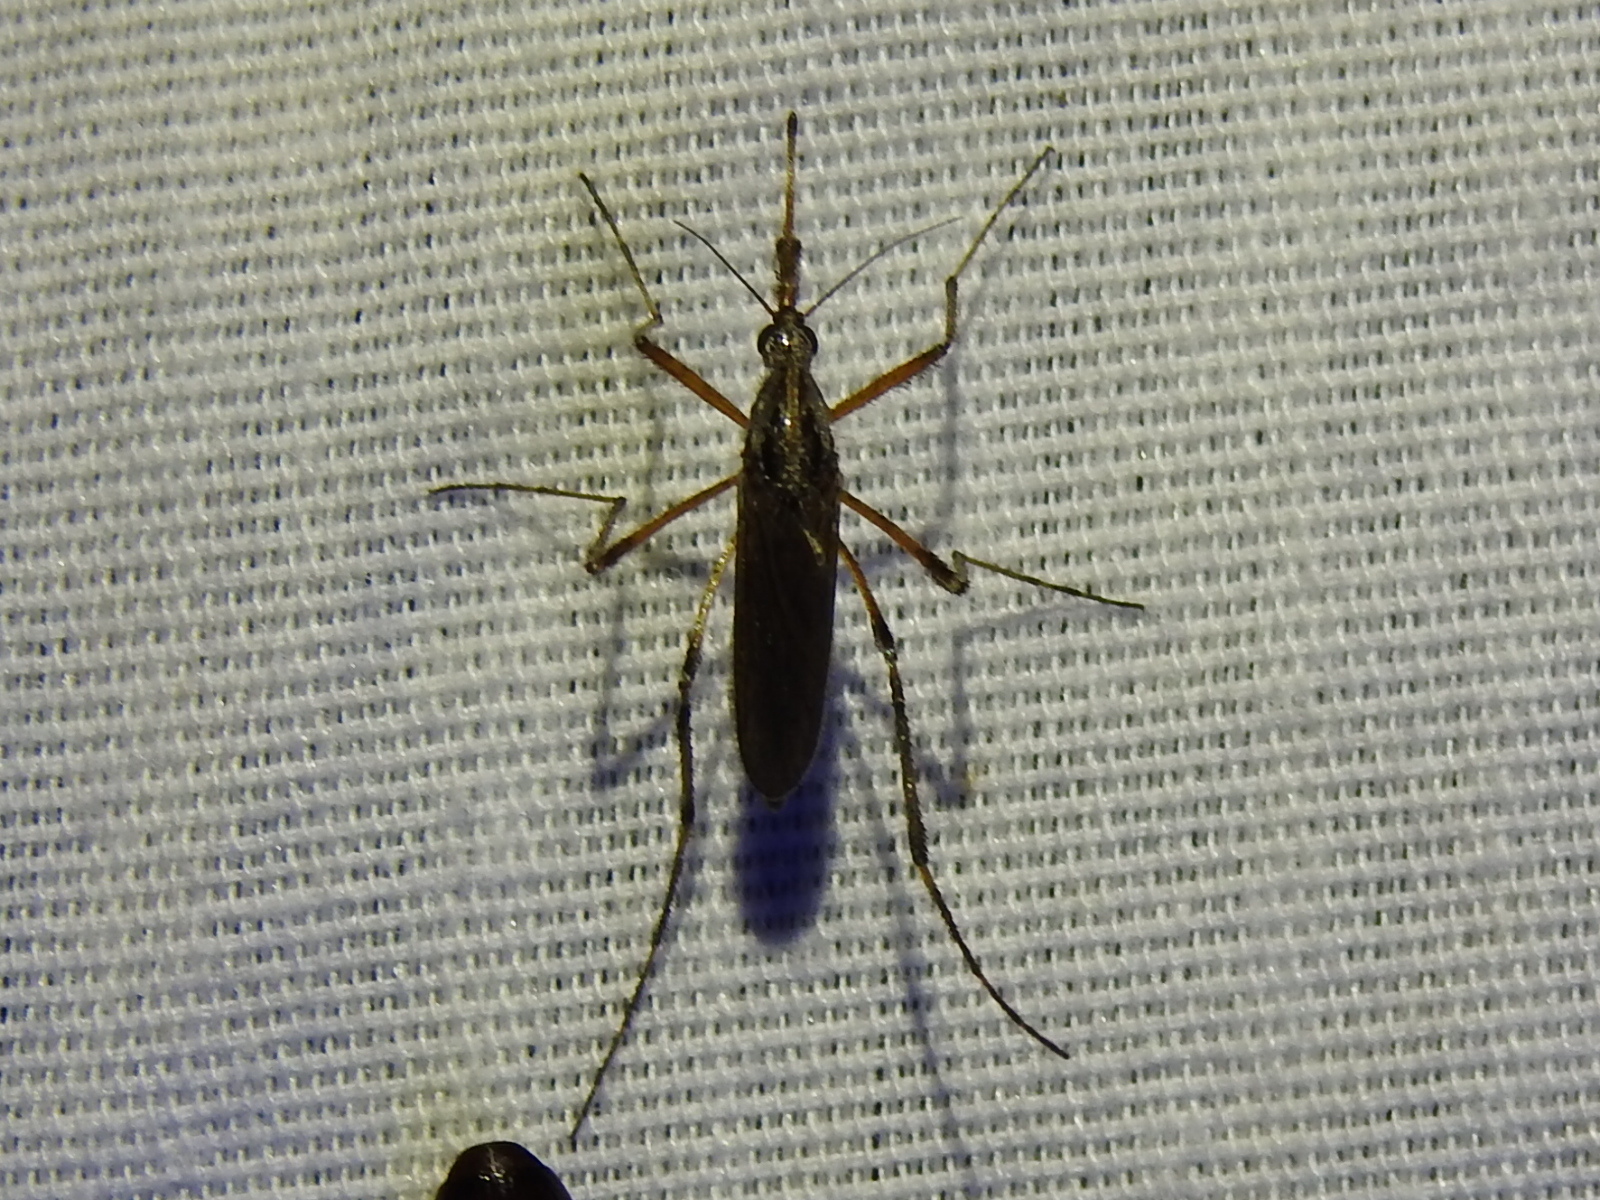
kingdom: Animalia
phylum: Arthropoda
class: Insecta
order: Diptera
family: Culicidae
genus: Psorophora
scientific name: Psorophora ciliata
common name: Gallinipper
